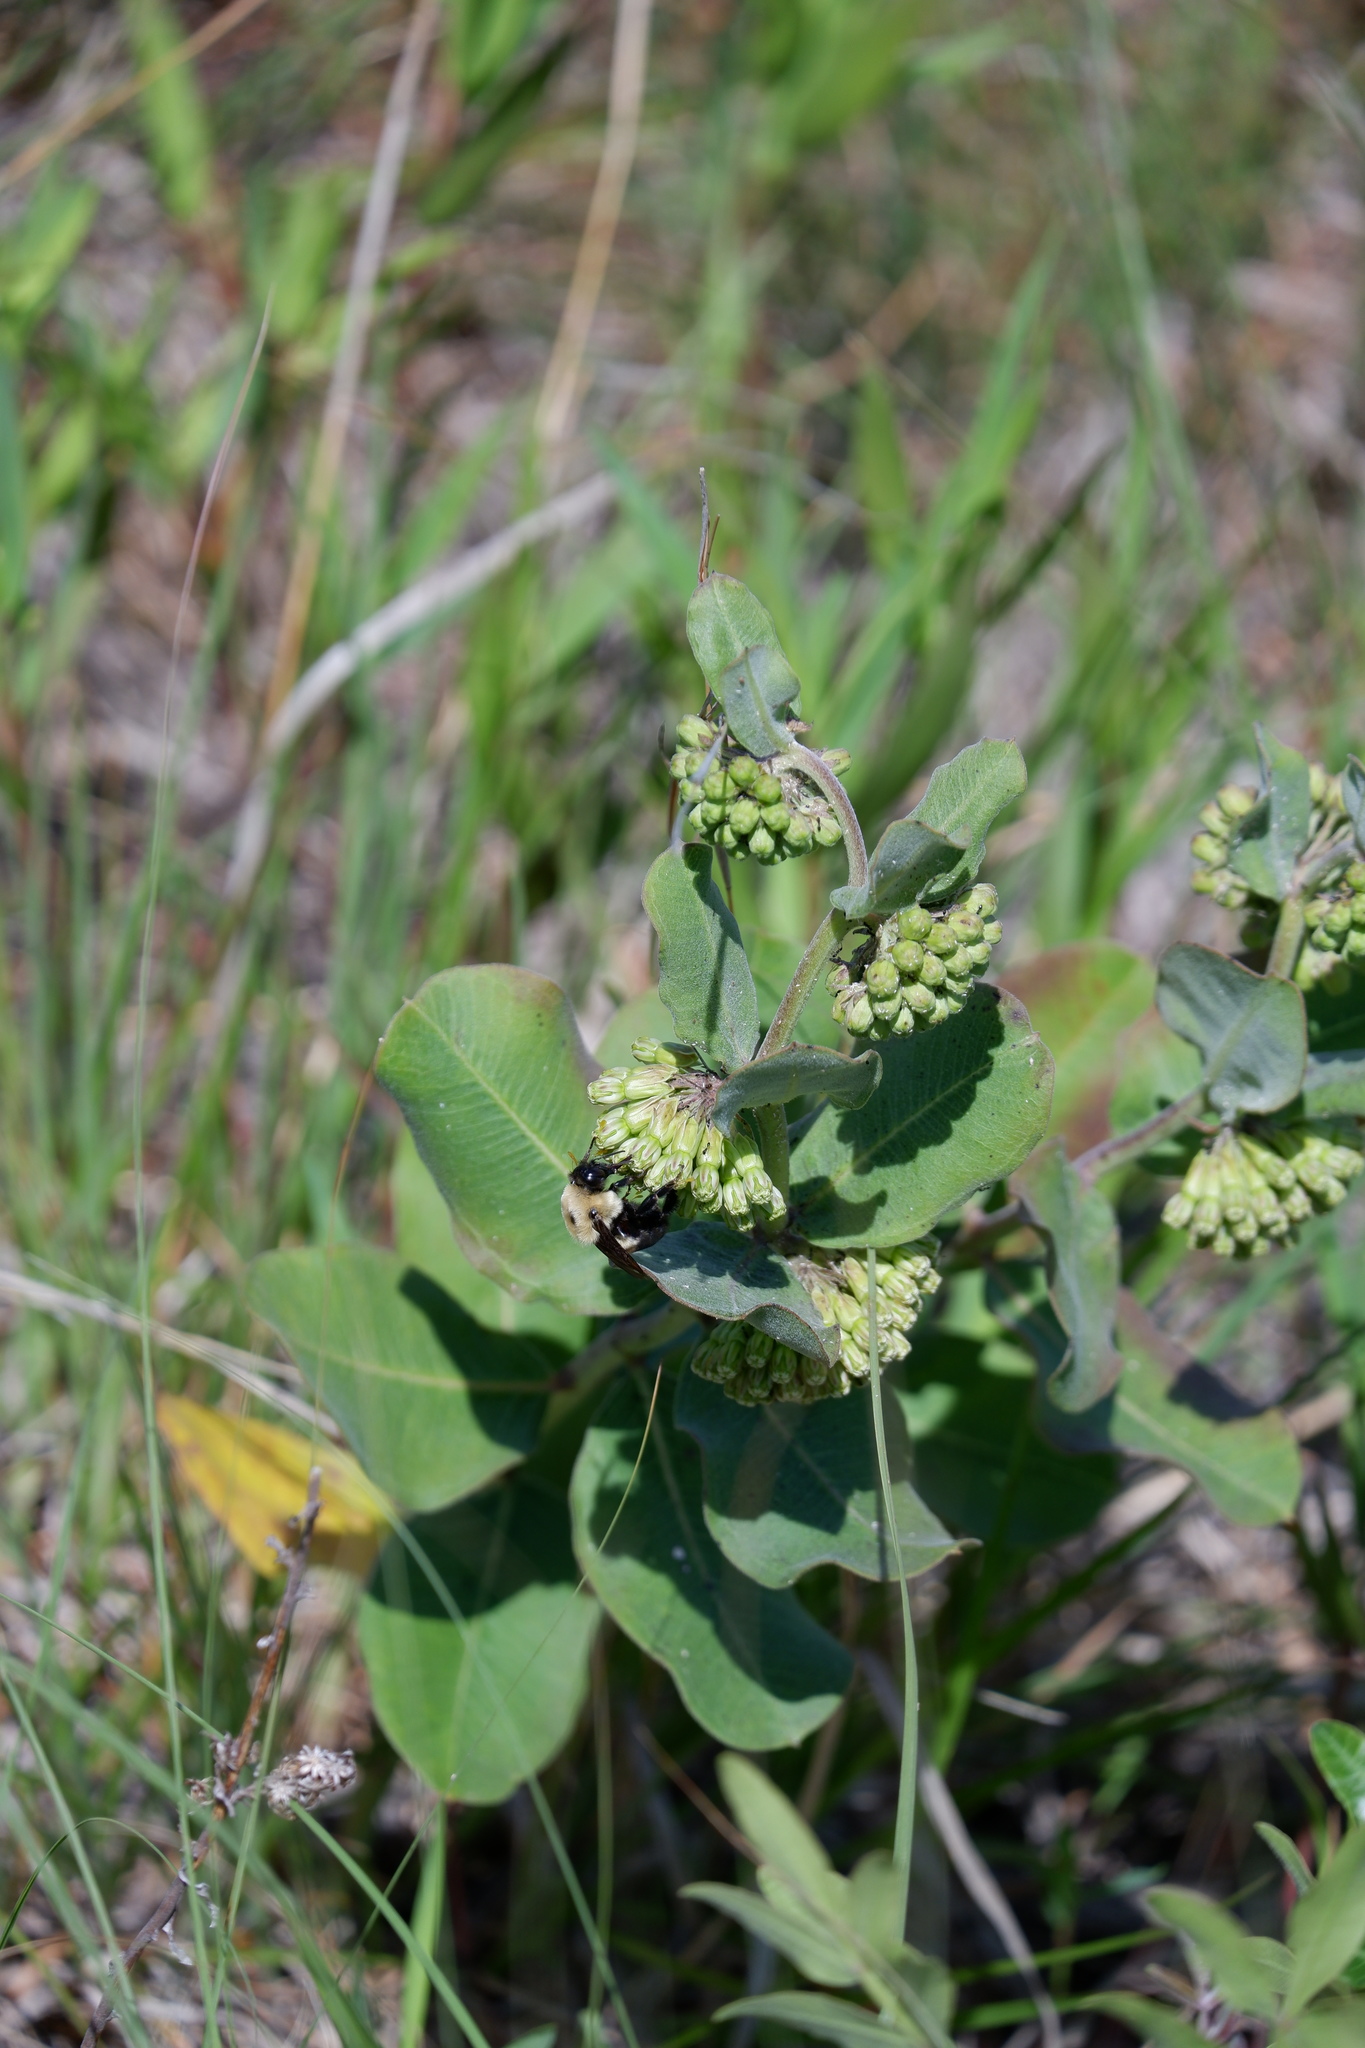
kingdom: Animalia
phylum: Arthropoda
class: Insecta
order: Hymenoptera
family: Apidae
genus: Bombus
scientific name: Bombus griseocollis
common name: Brown-belted bumble bee
